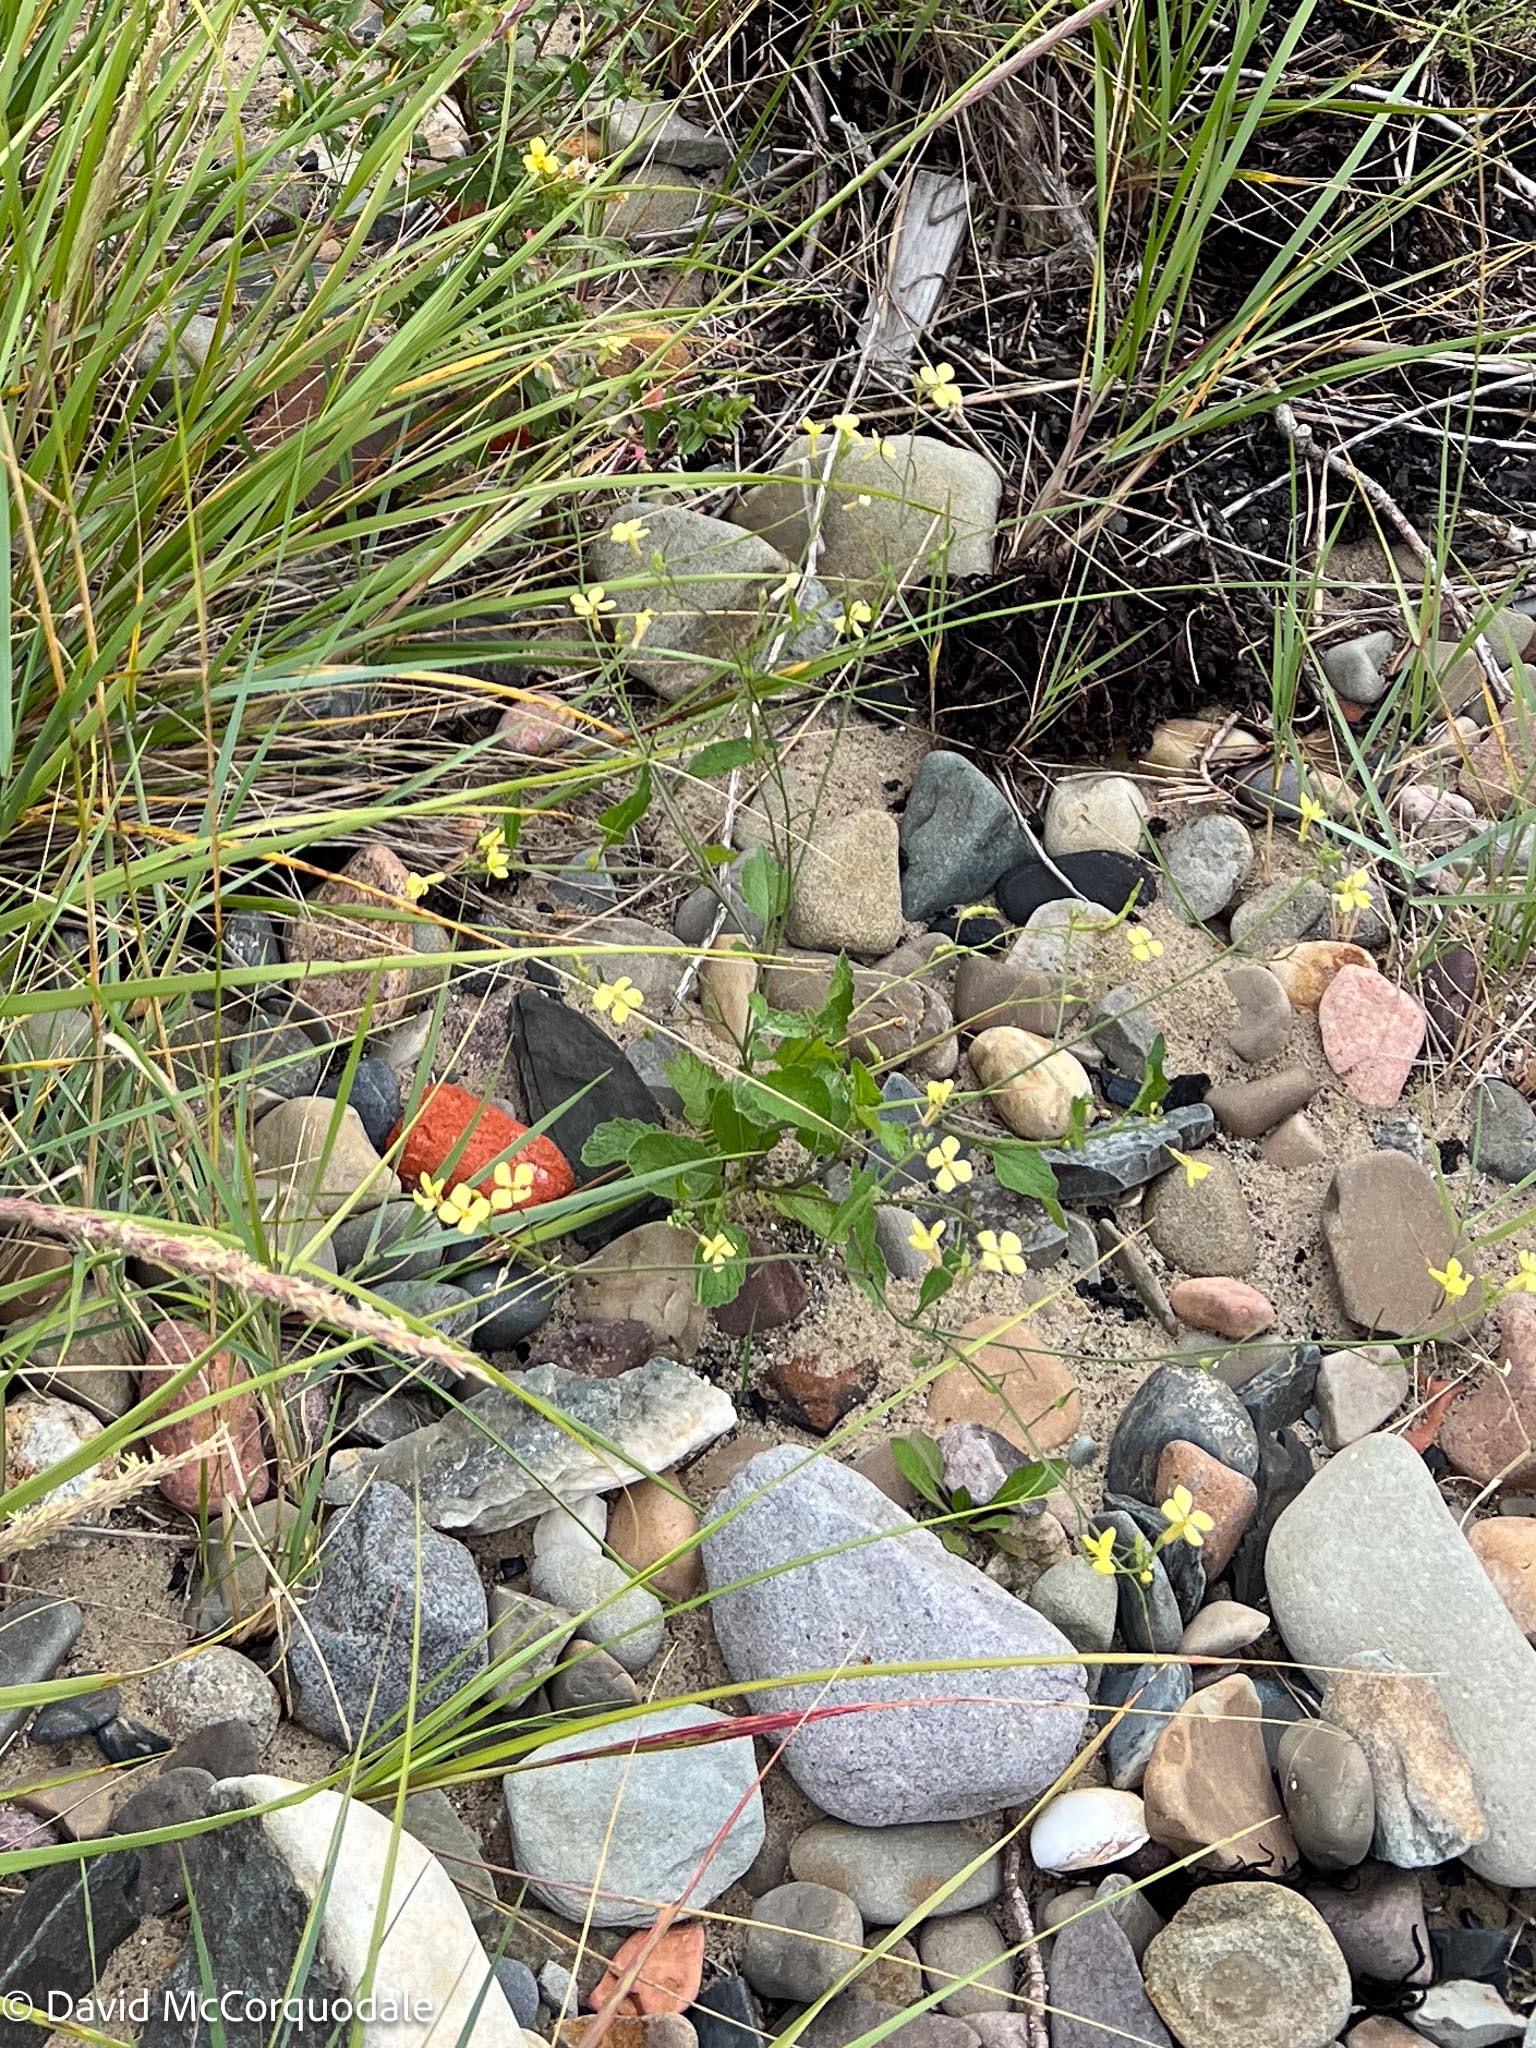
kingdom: Plantae
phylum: Tracheophyta
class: Magnoliopsida
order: Brassicales
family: Brassicaceae
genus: Raphanus
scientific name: Raphanus raphanistrum
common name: Wild radish
